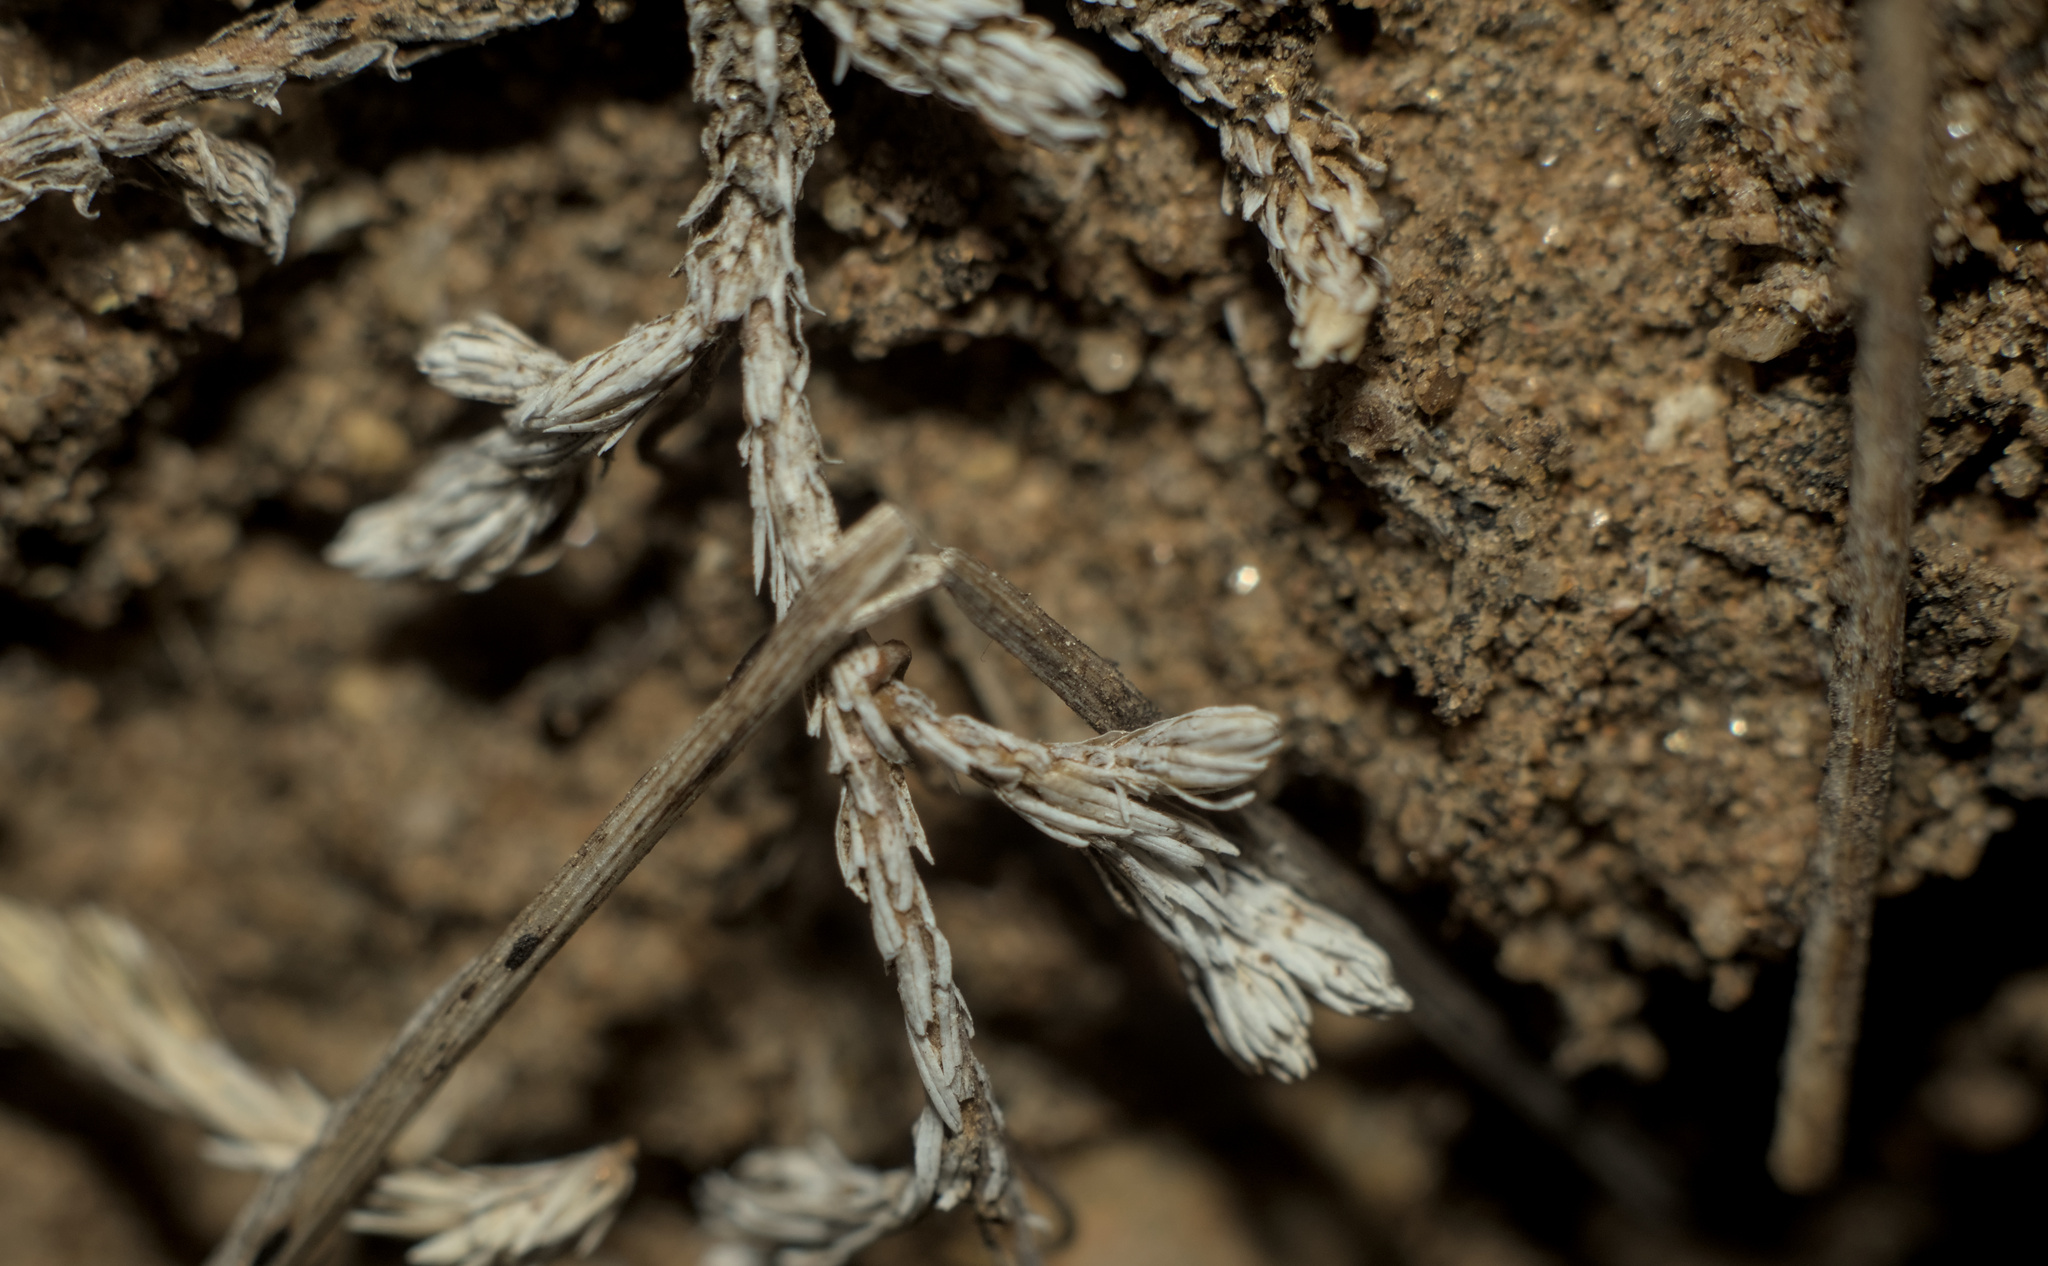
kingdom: Plantae
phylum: Tracheophyta
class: Lycopodiopsida
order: Selaginellales
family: Selaginellaceae
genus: Selaginella
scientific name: Selaginella cinerascens
